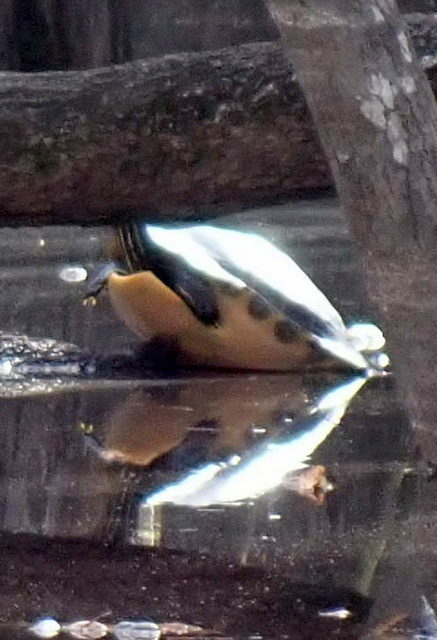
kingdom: Animalia
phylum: Chordata
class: Testudines
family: Emydidae
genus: Pseudemys
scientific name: Pseudemys concinna
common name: Eastern river cooter
